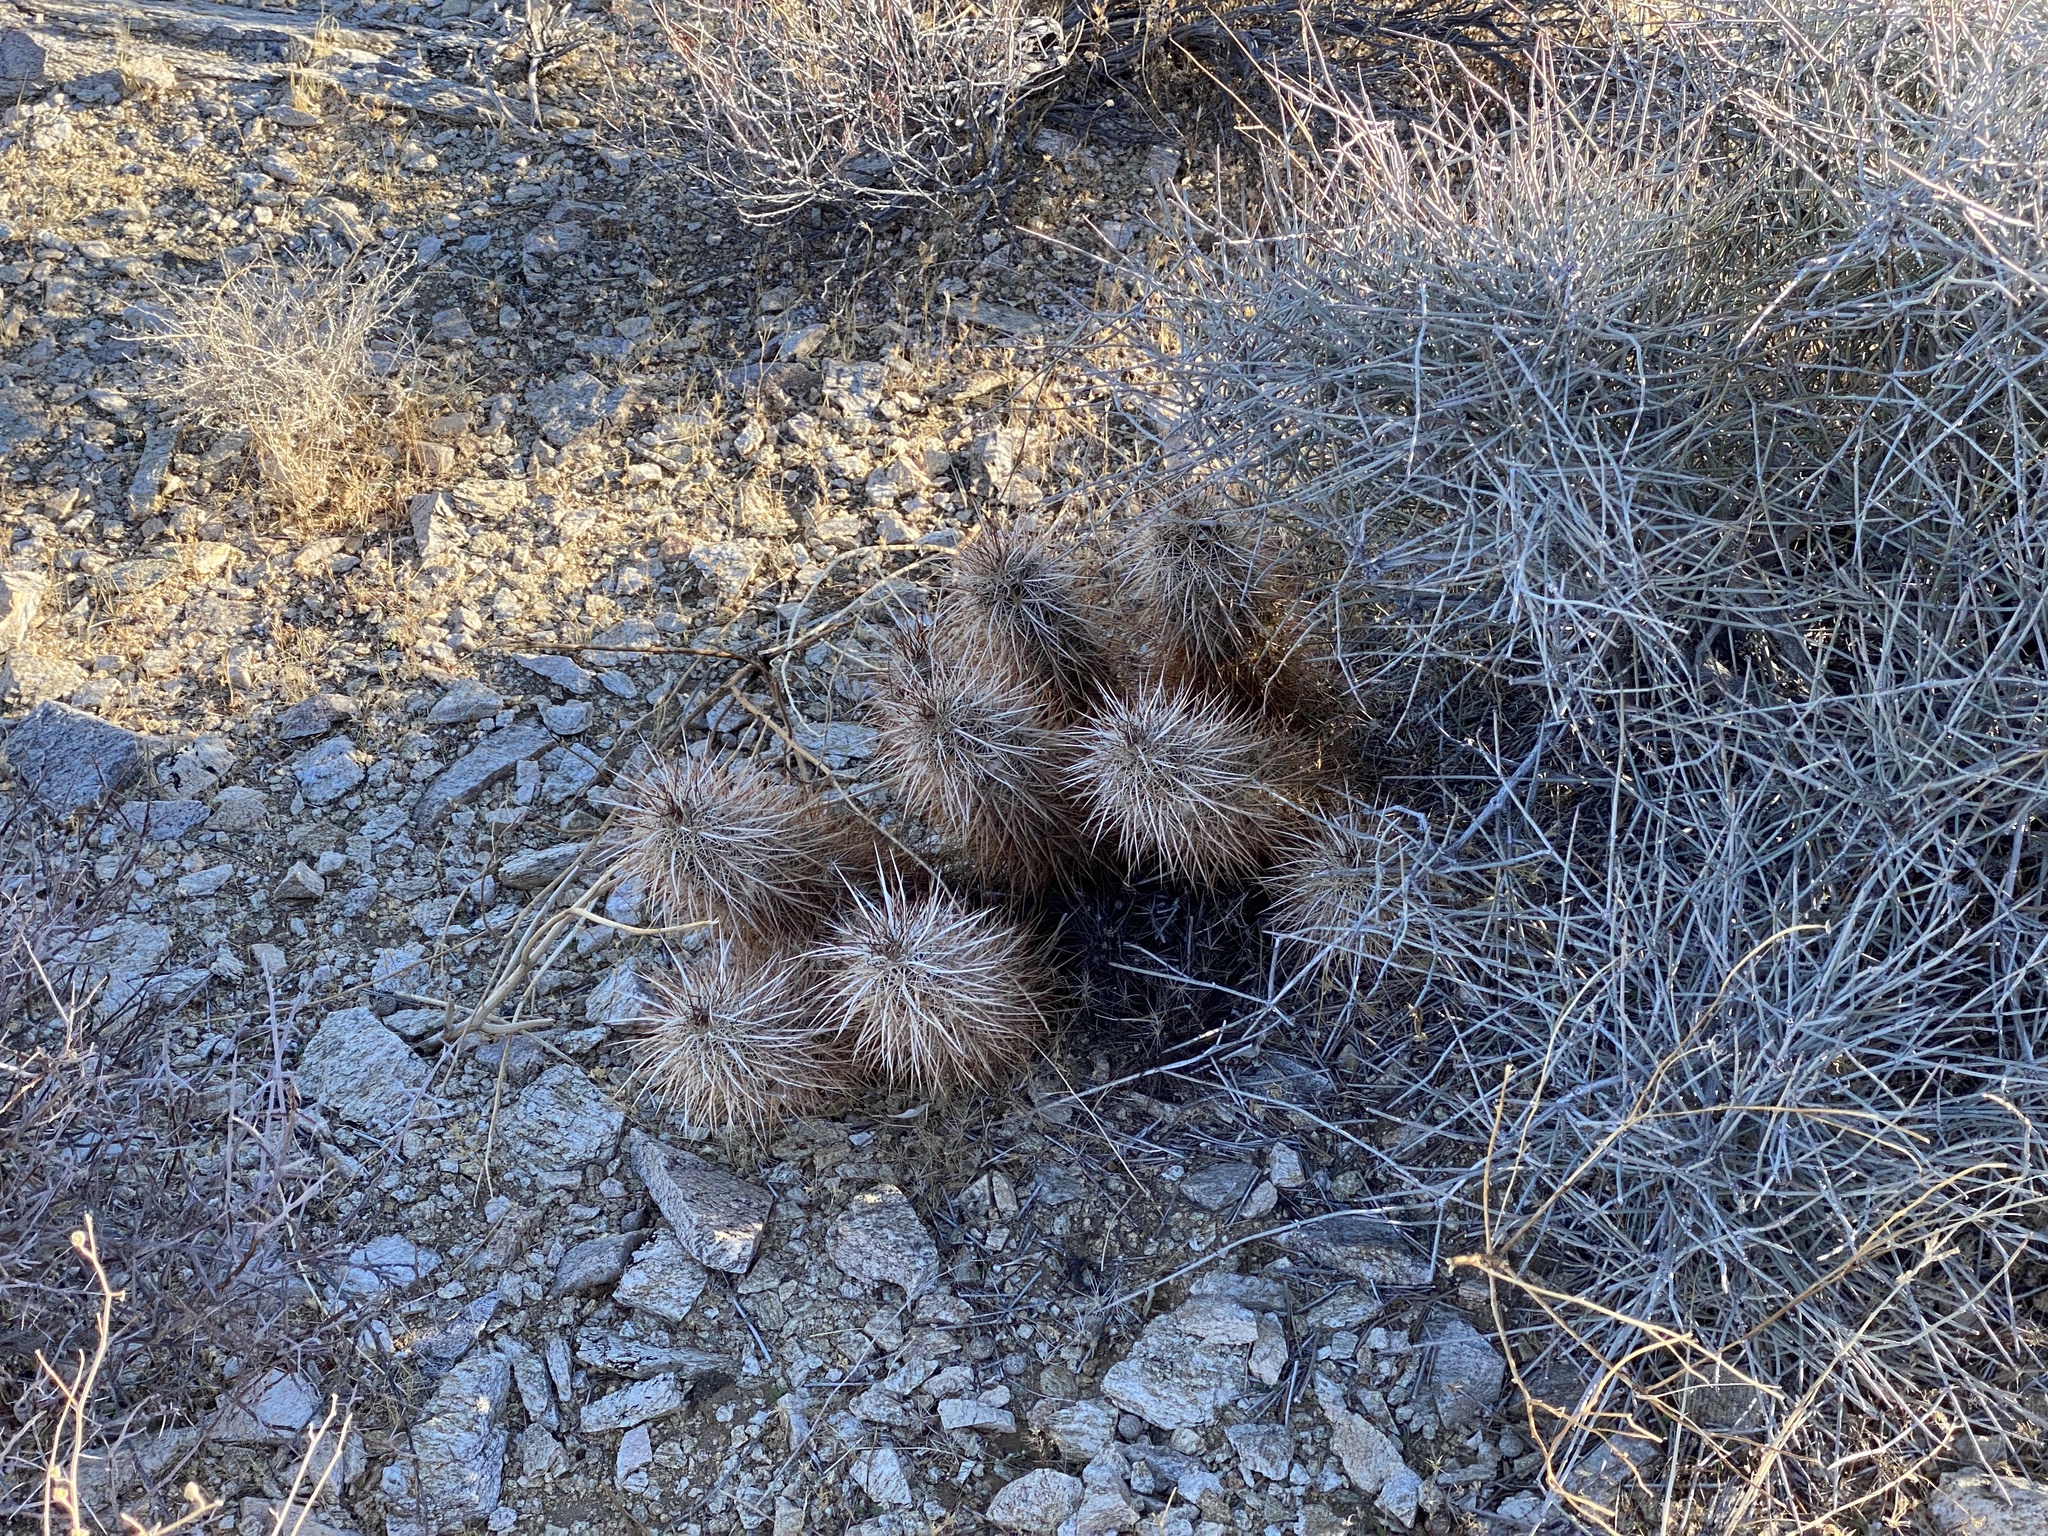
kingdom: Plantae
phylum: Tracheophyta
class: Magnoliopsida
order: Caryophyllales
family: Cactaceae
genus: Echinocereus
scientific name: Echinocereus engelmannii
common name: Engelmann's hedgehog cactus
